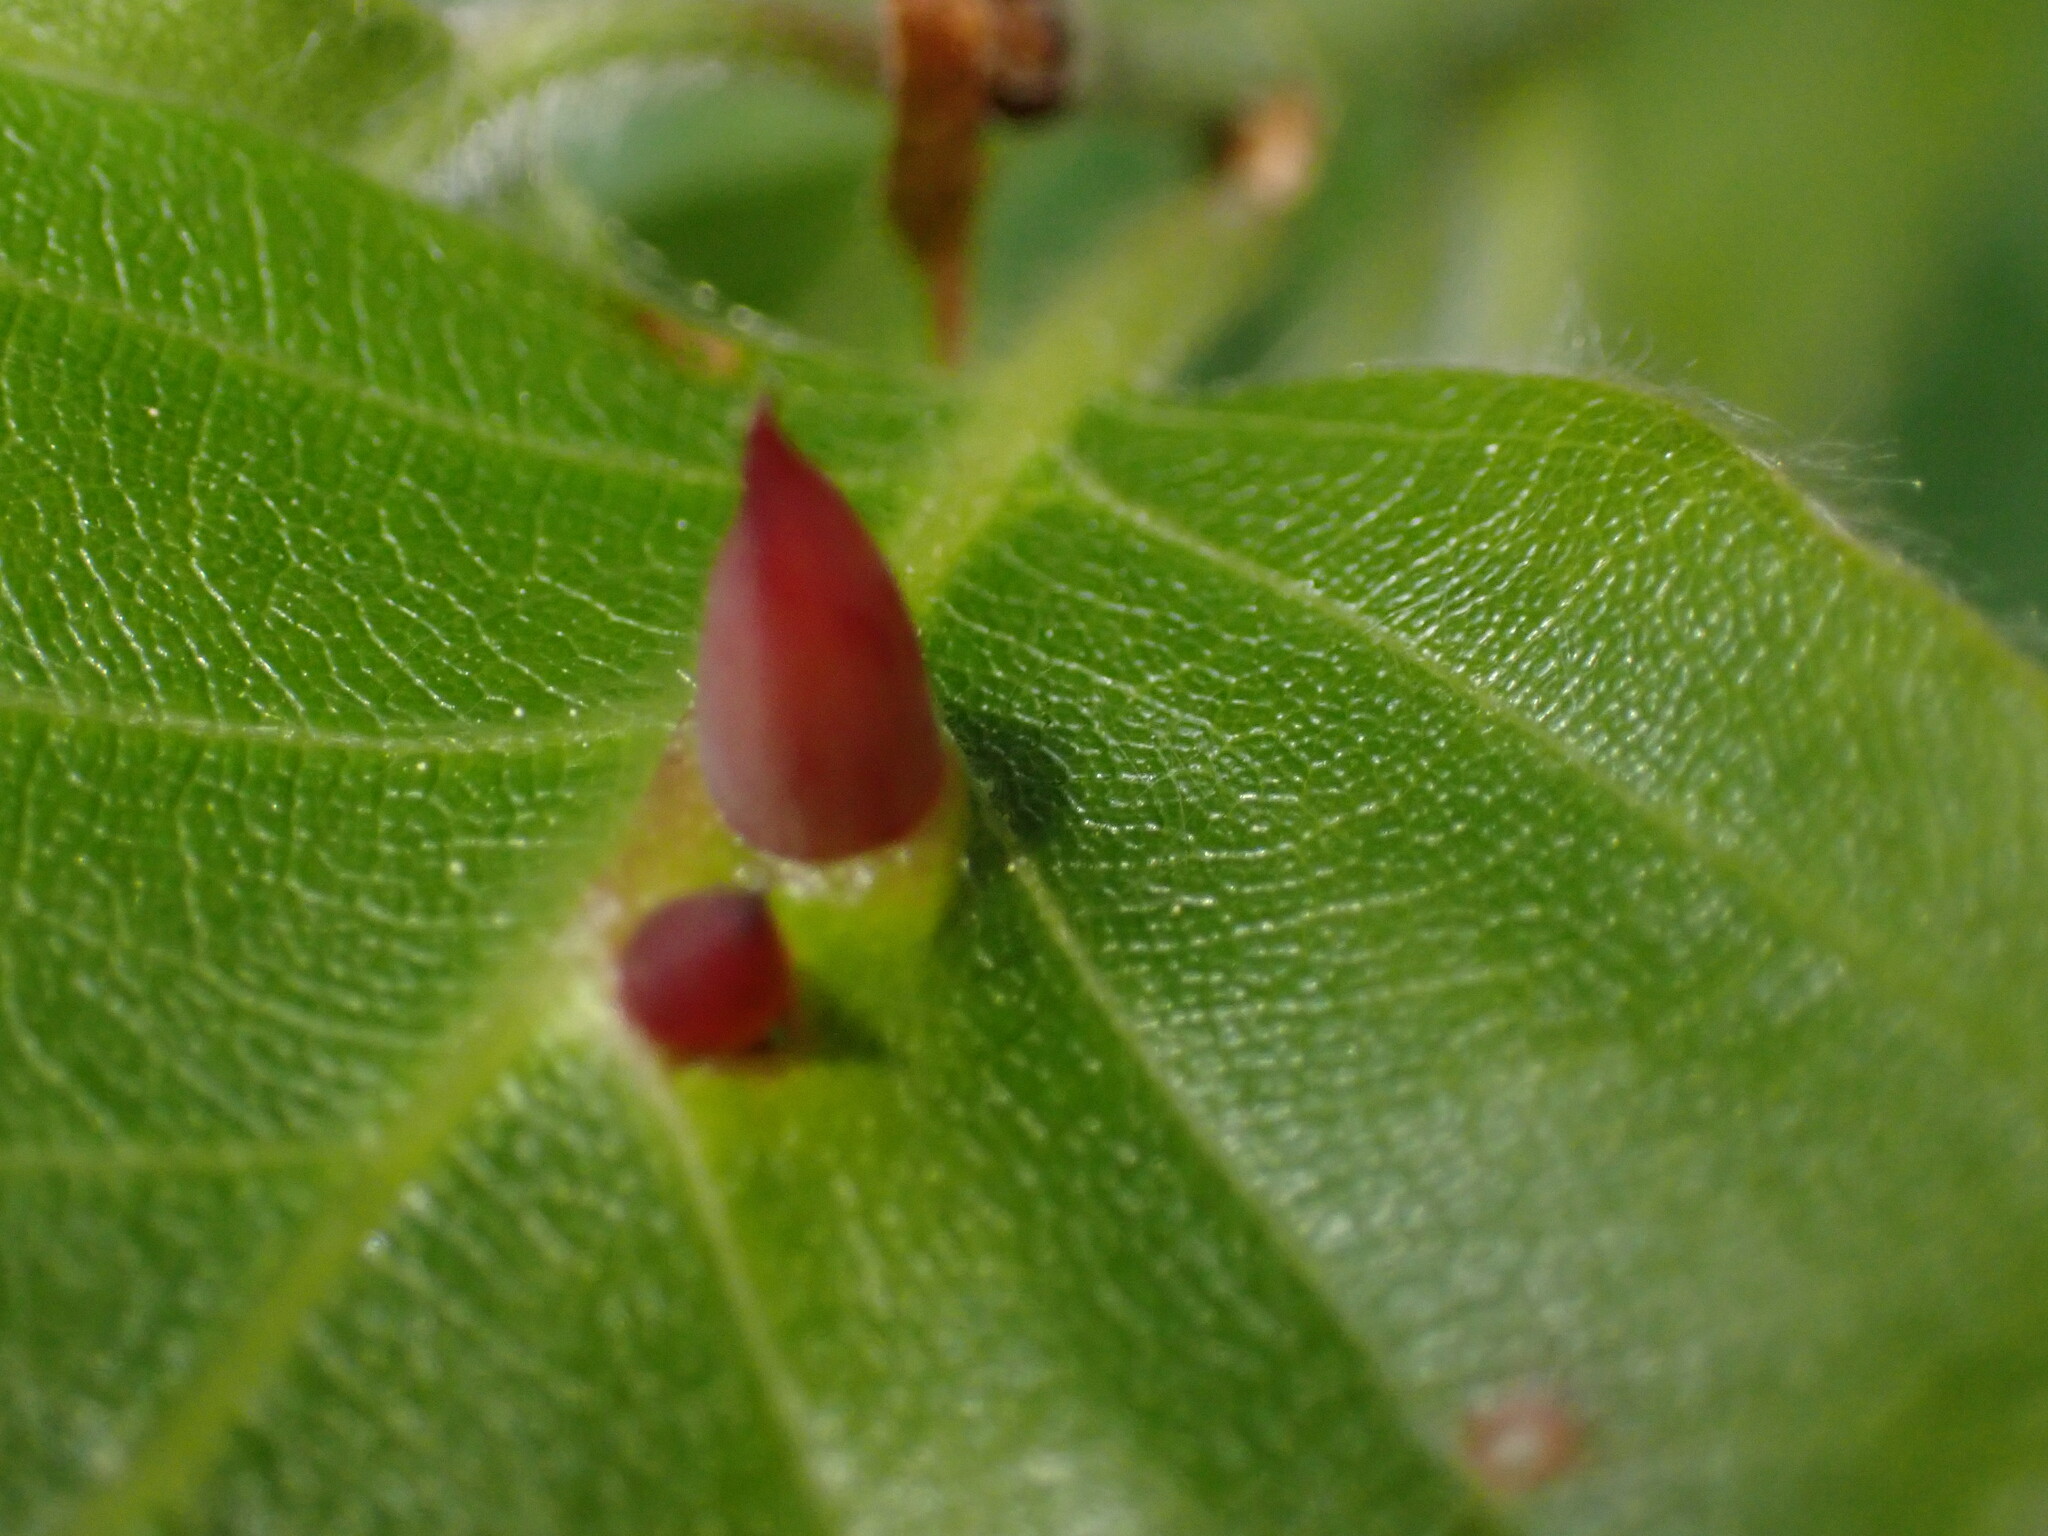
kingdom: Animalia
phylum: Arthropoda
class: Insecta
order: Diptera
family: Cecidomyiidae
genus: Mikiola
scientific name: Mikiola fagi
